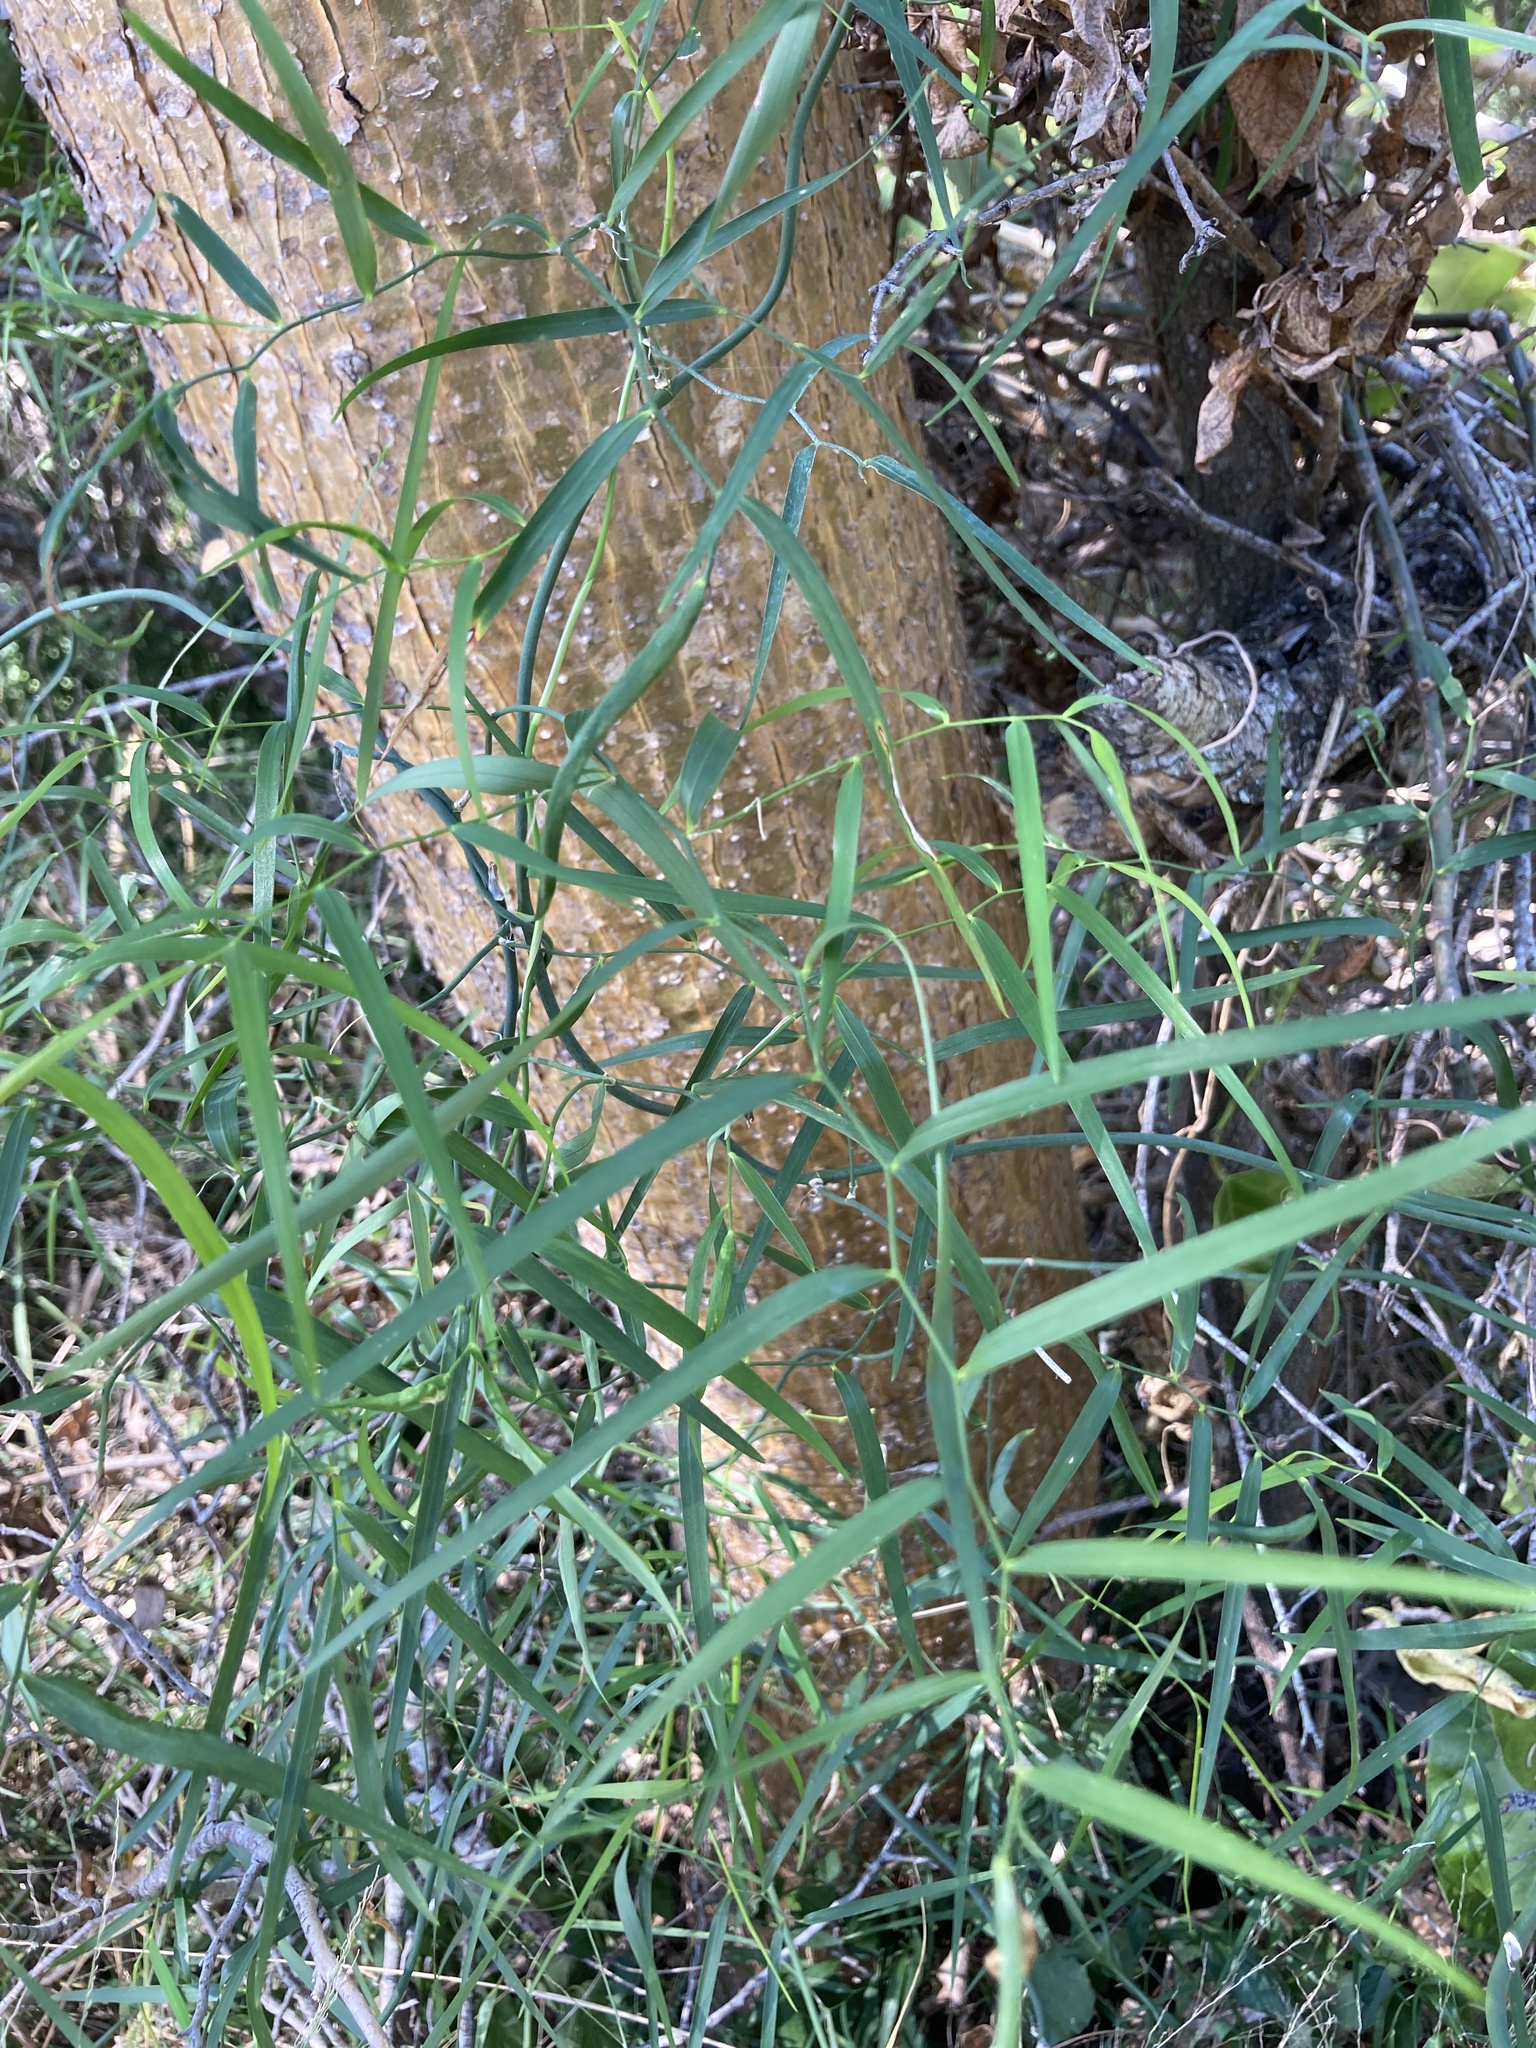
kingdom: Plantae
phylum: Tracheophyta
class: Liliopsida
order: Asparagales
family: Asphodelaceae
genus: Geitonoplesium
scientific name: Geitonoplesium cymosum
